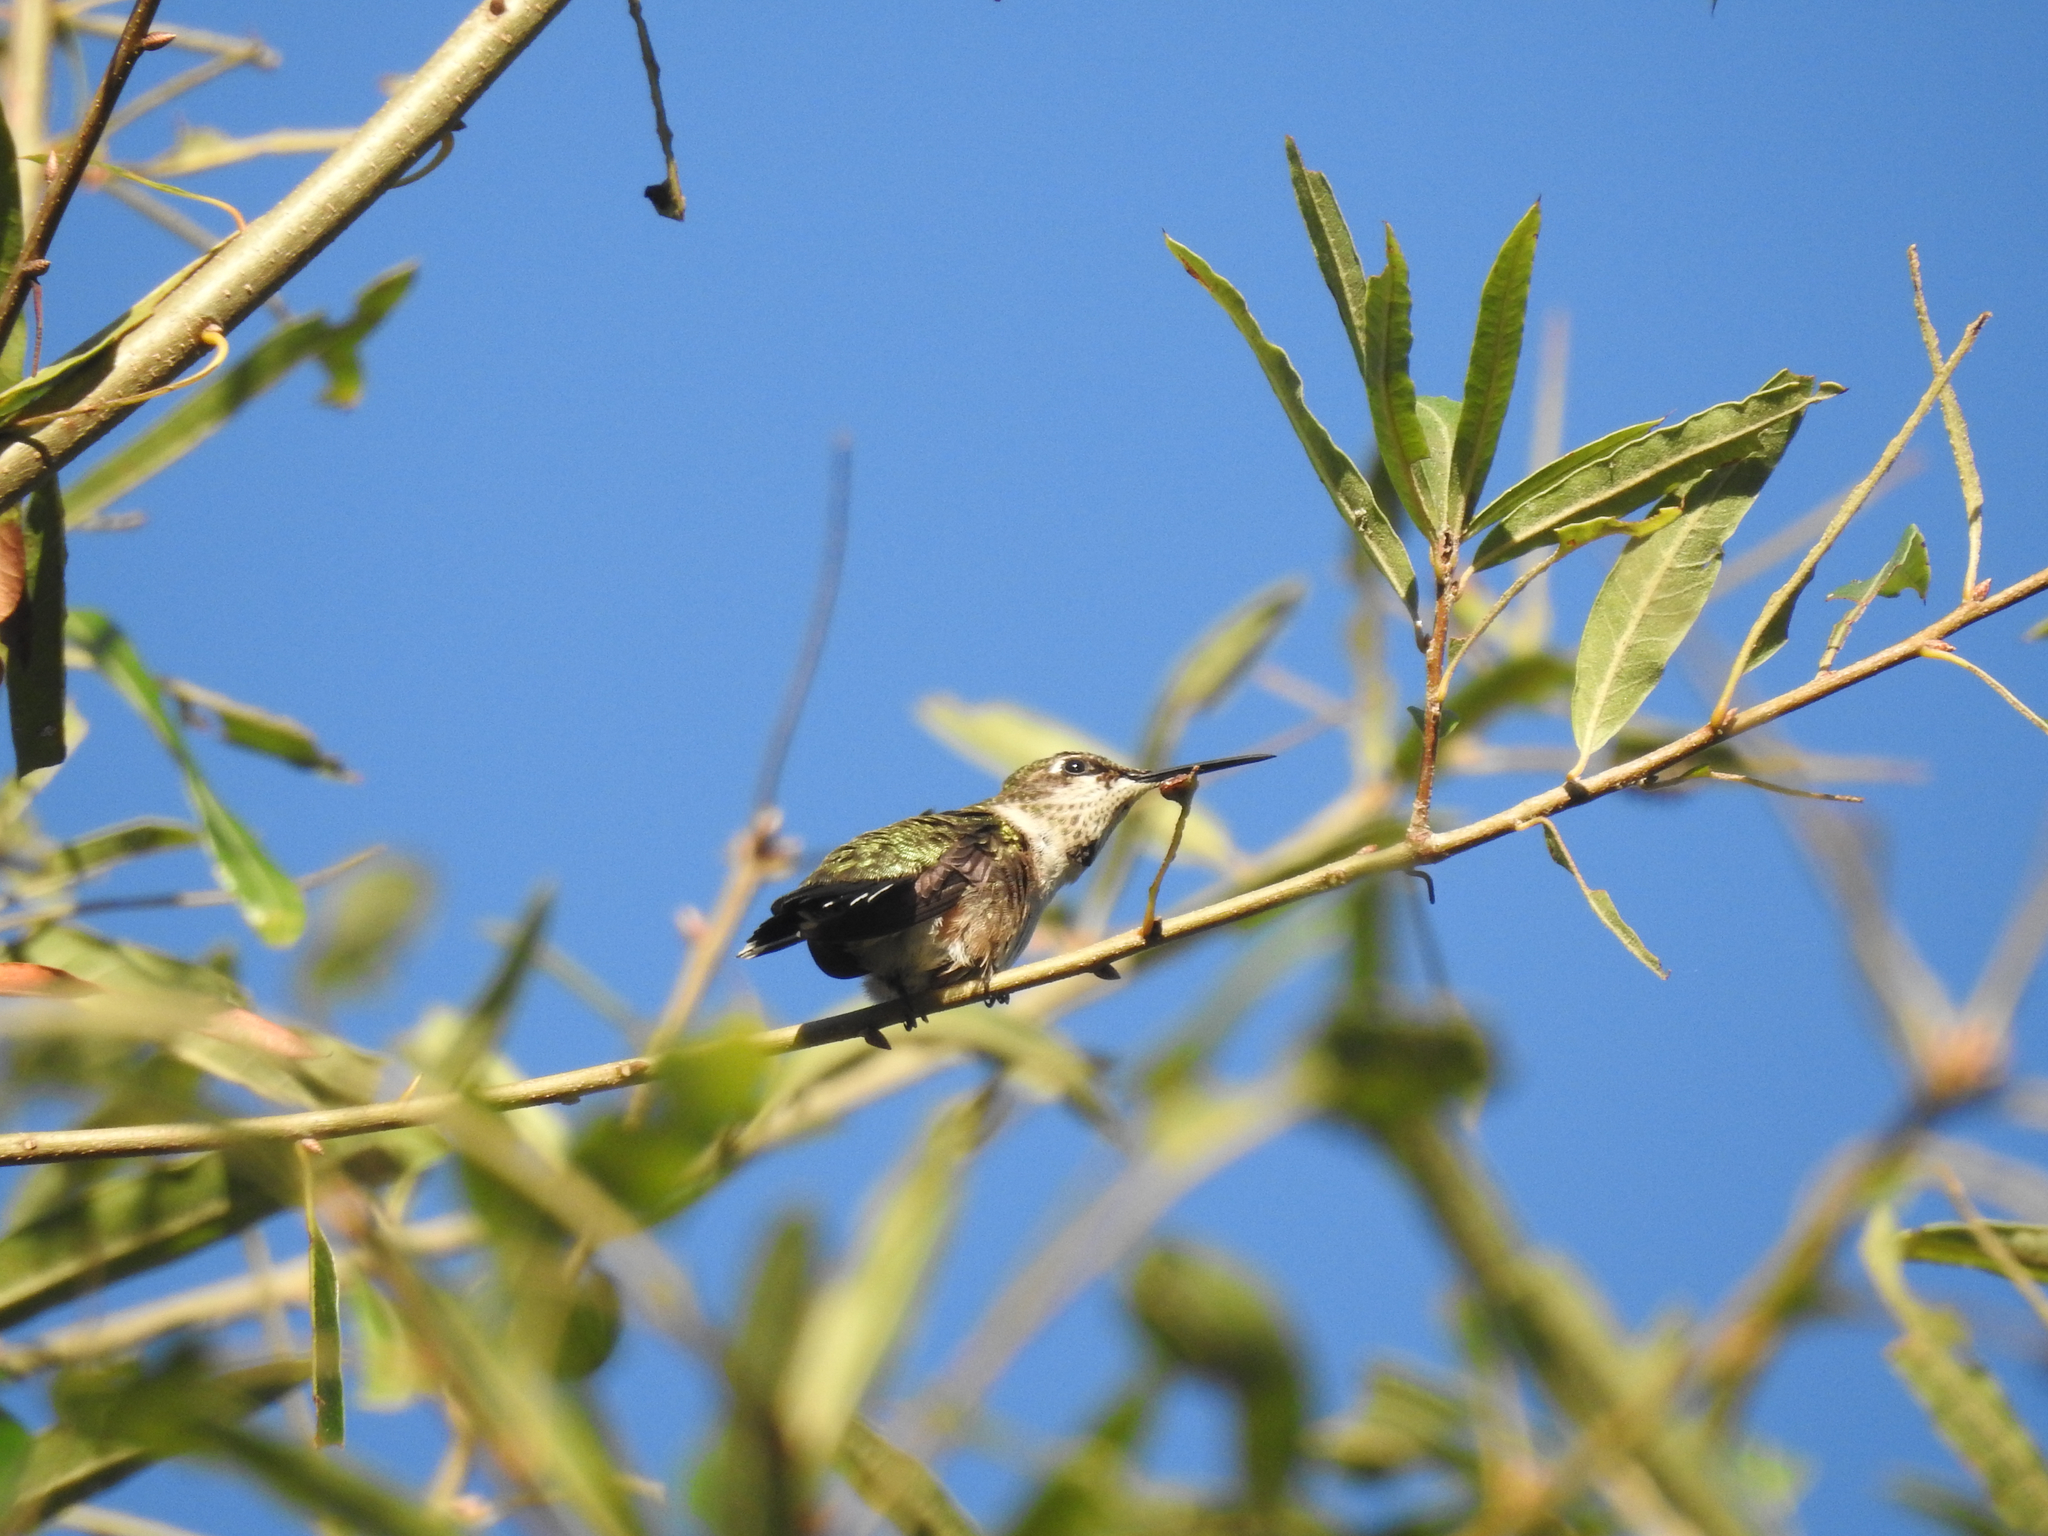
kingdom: Animalia
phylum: Chordata
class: Aves
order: Apodiformes
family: Trochilidae
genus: Archilochus
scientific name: Archilochus colubris
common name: Ruby-throated hummingbird
